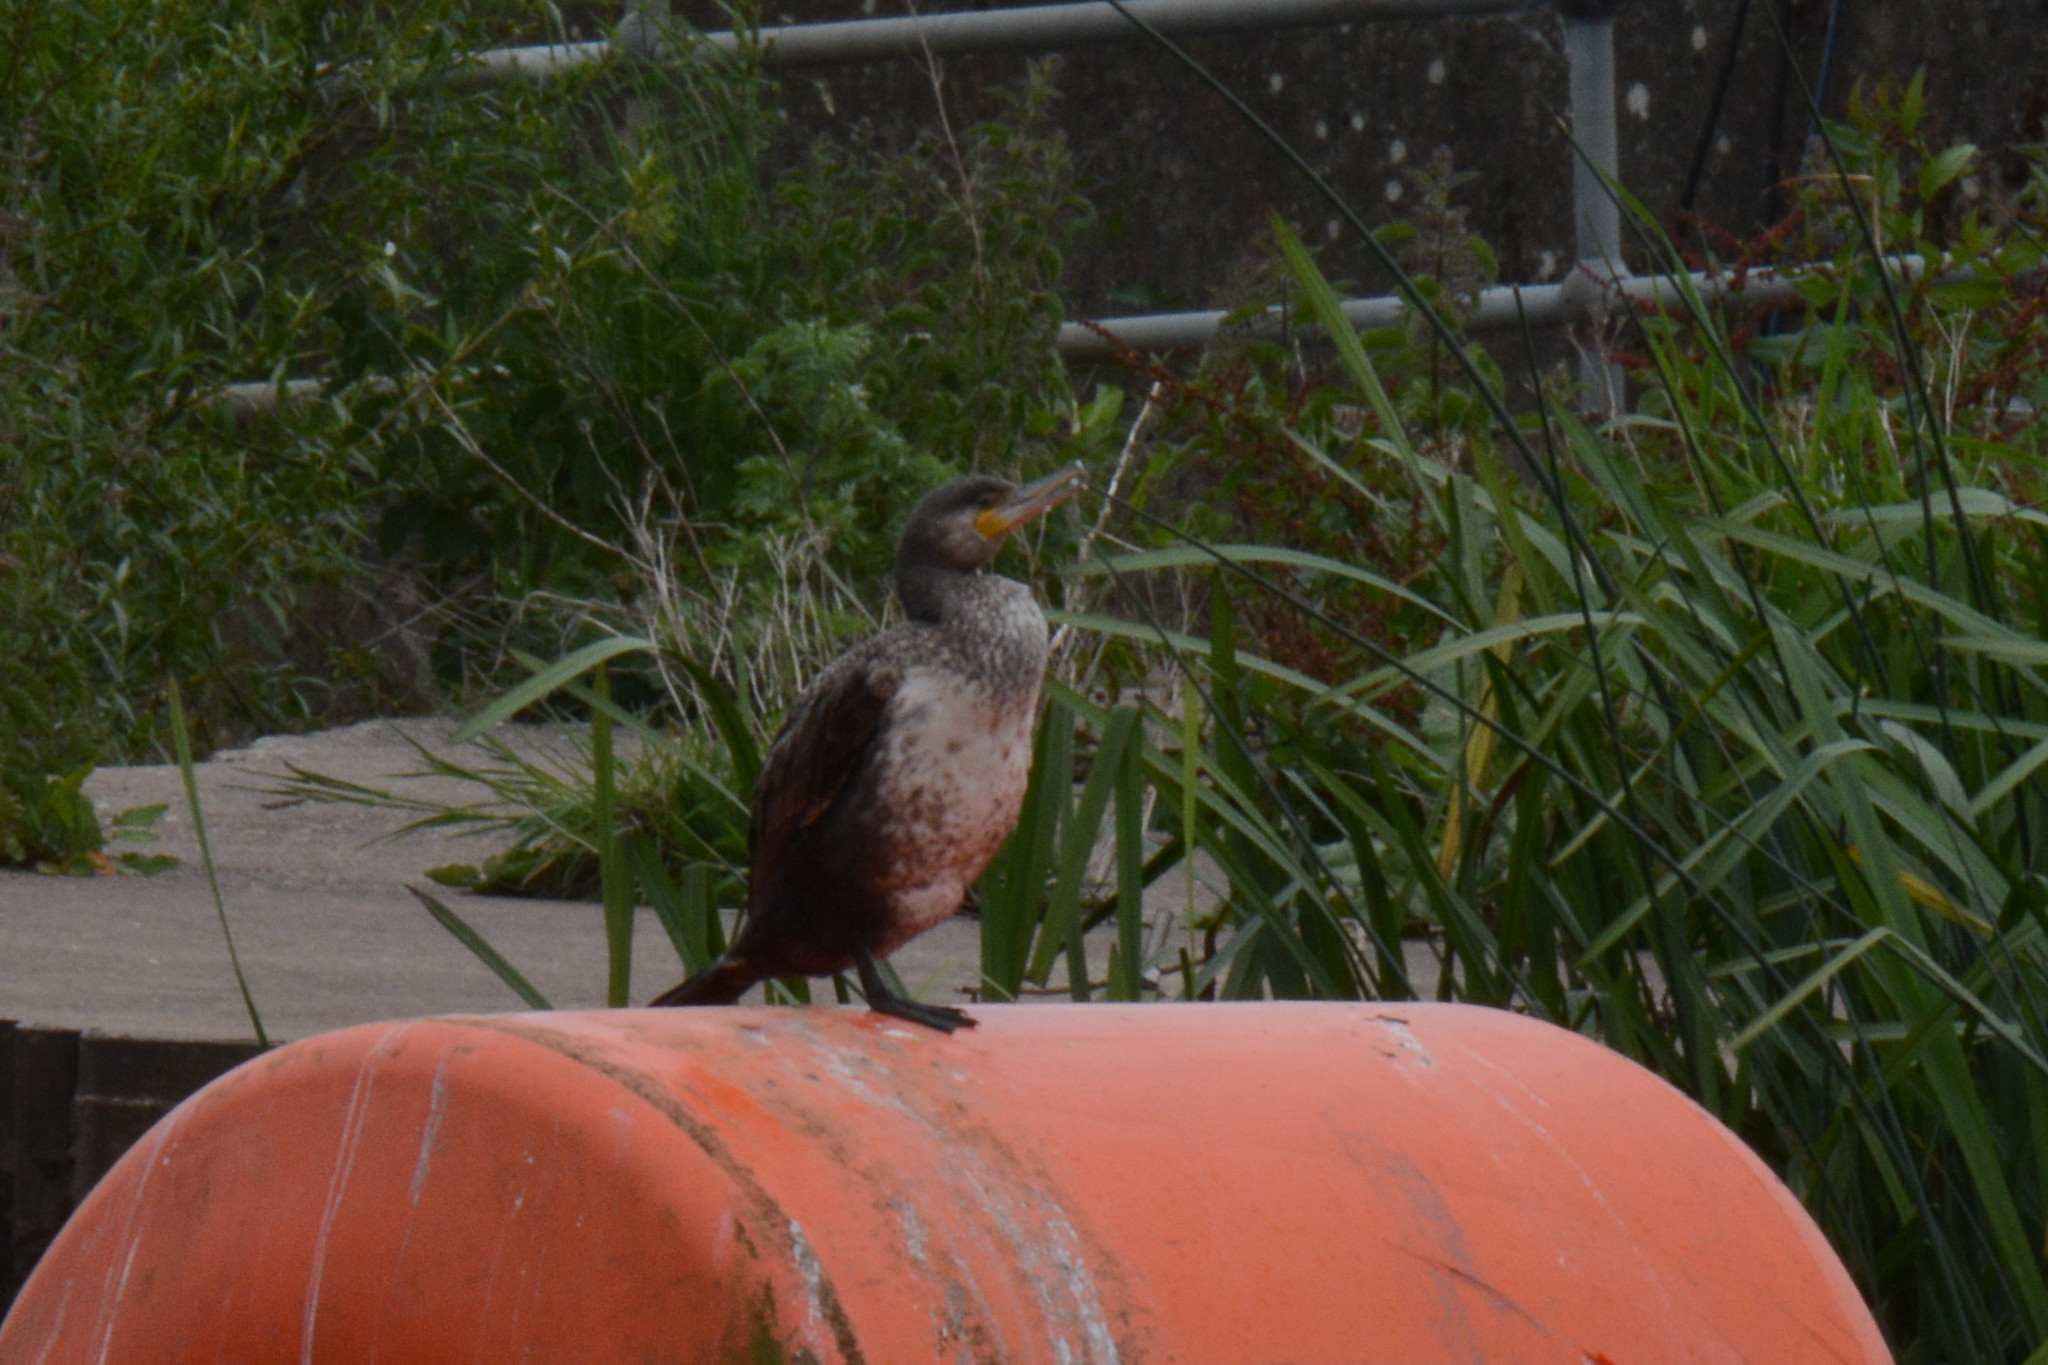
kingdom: Animalia
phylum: Chordata
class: Aves
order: Suliformes
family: Phalacrocoracidae
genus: Phalacrocorax
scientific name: Phalacrocorax carbo
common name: Great cormorant
